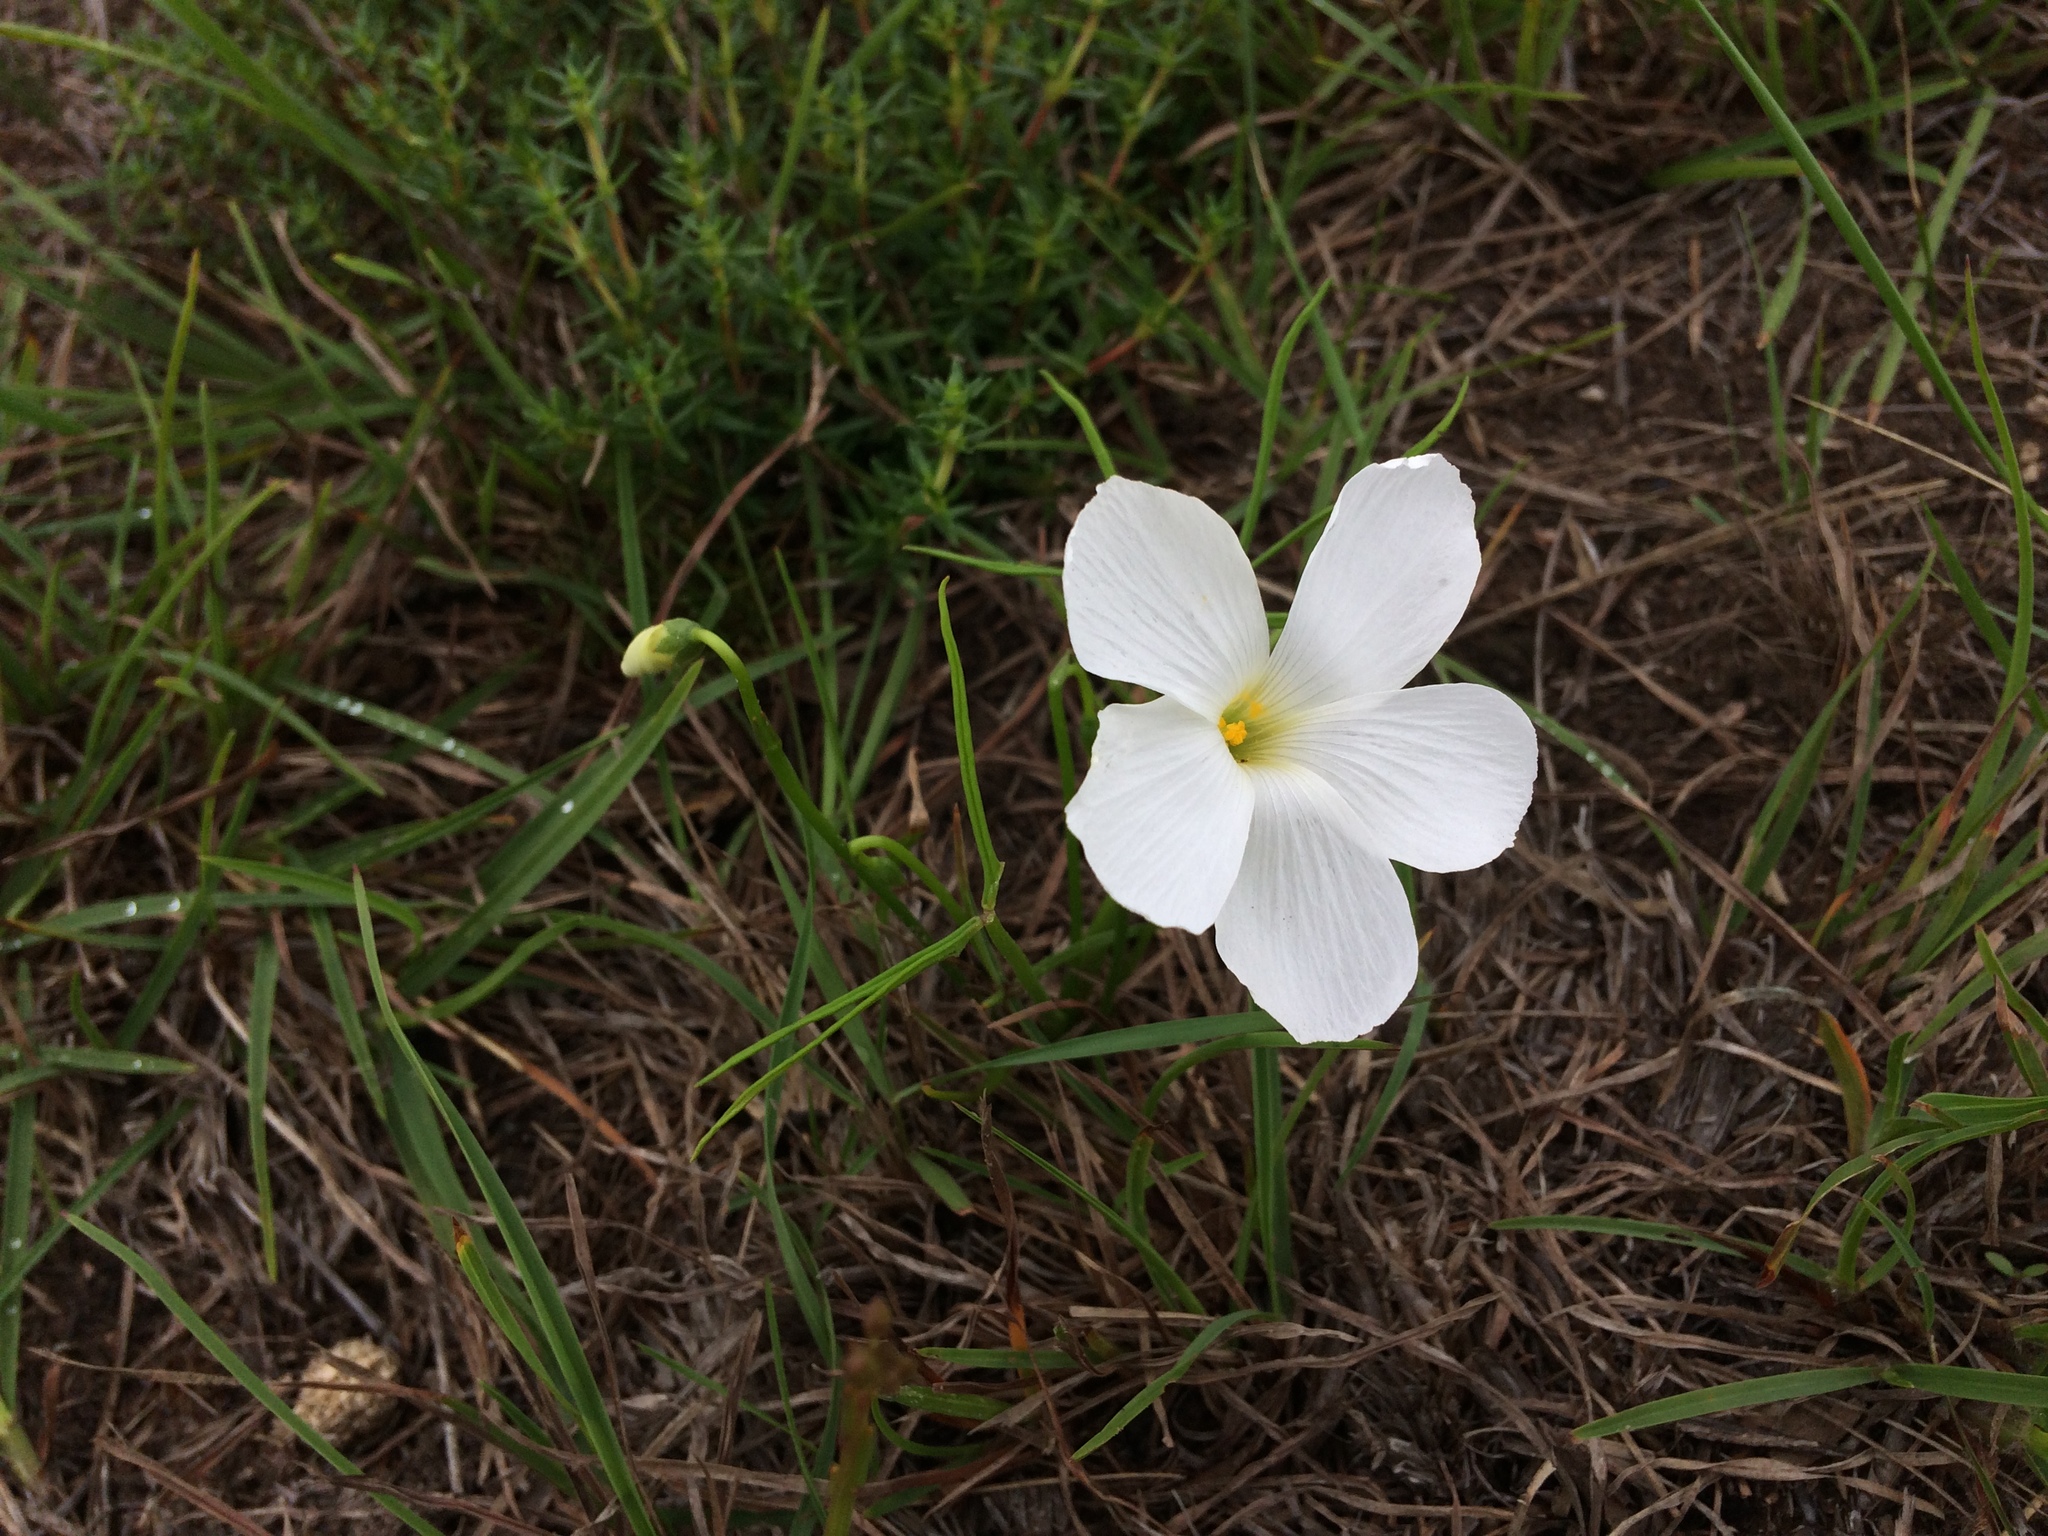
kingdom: Plantae
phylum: Tracheophyta
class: Magnoliopsida
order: Oxalidales
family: Oxalidaceae
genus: Oxalis
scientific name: Oxalis smithiana
